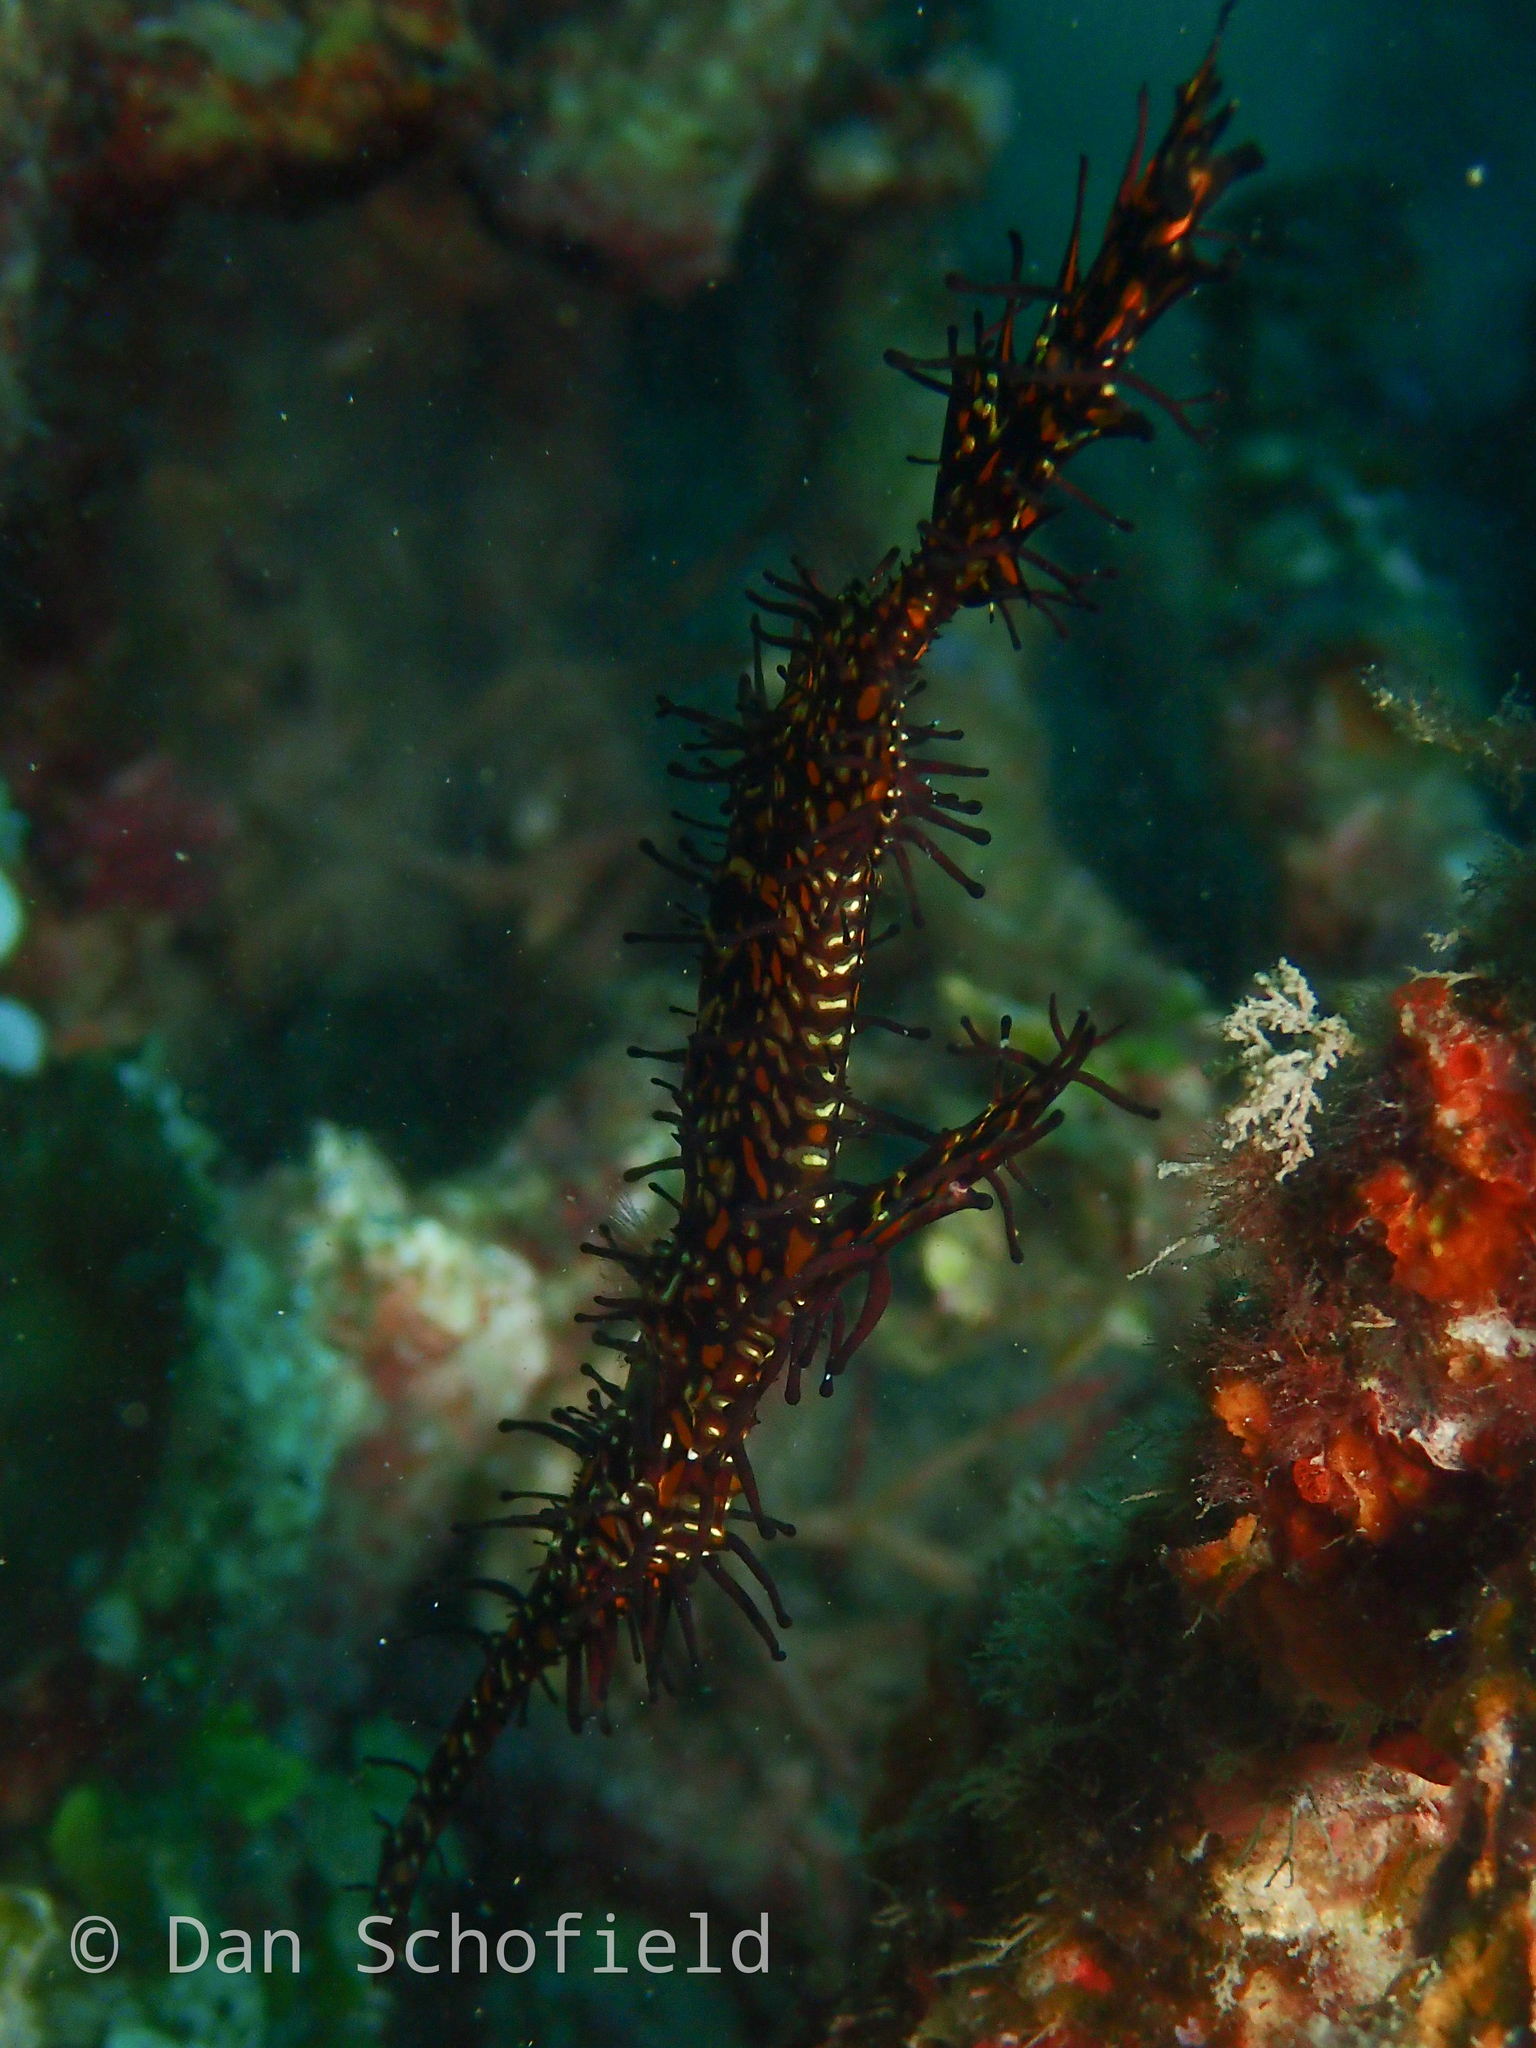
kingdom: Animalia
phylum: Chordata
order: Syngnathiformes
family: Solenostomidae
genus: Solenostomus
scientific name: Solenostomus paradoxus
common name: Ghost pipefish
